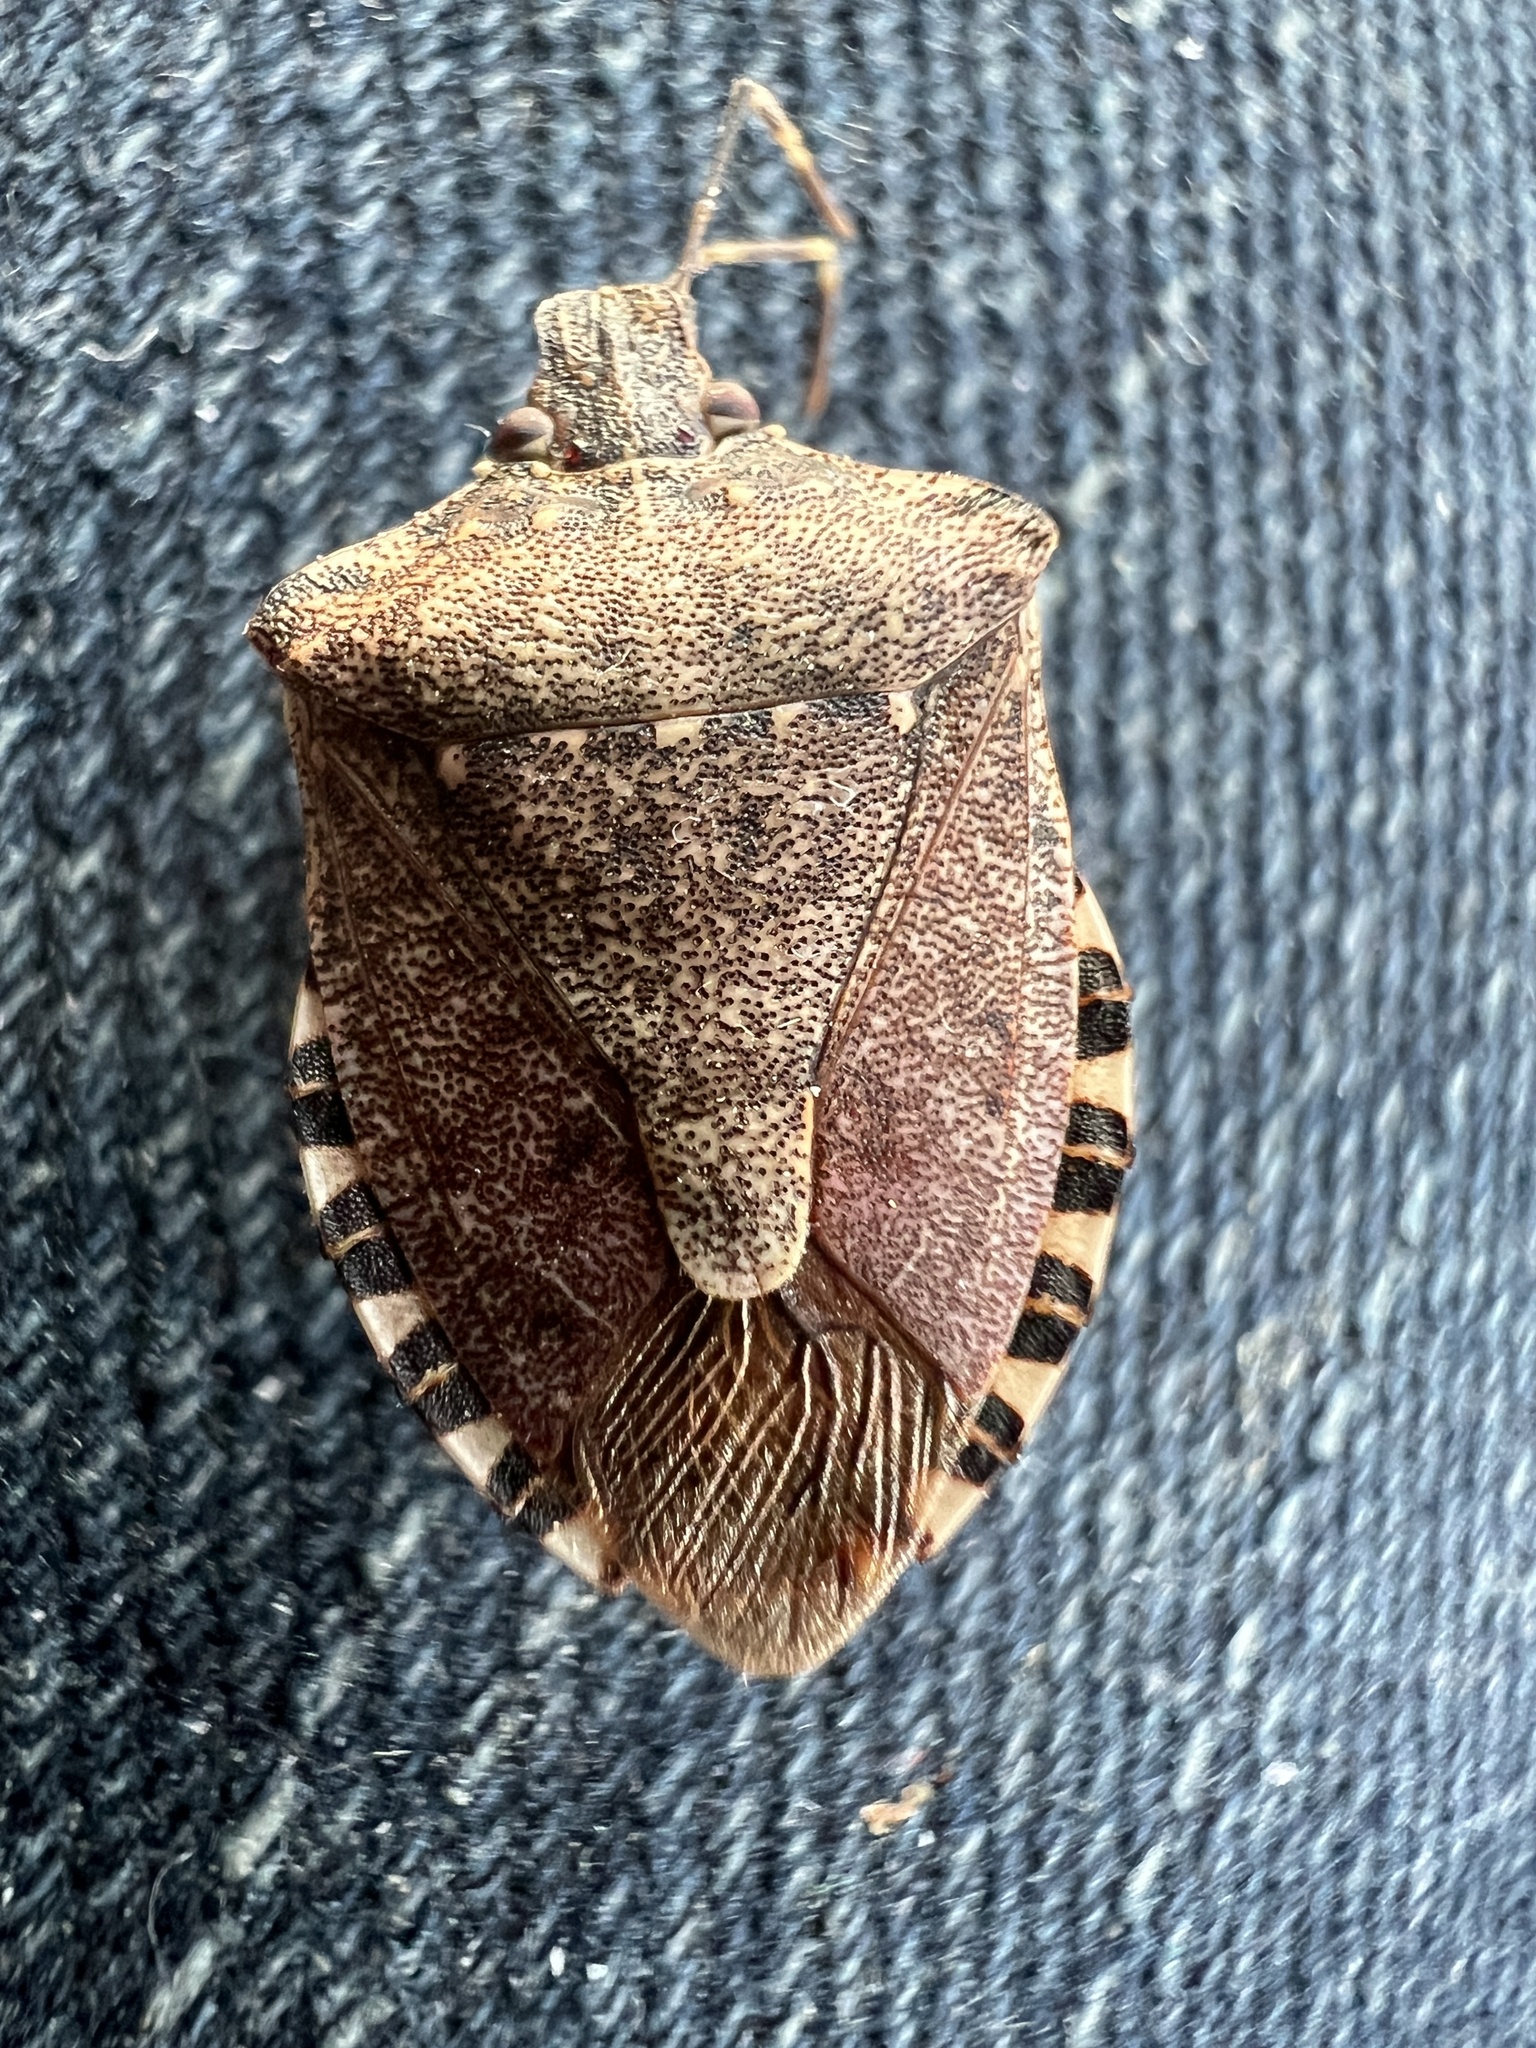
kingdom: Animalia
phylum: Arthropoda
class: Insecta
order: Hemiptera
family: Pentatomidae
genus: Halyomorpha
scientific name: Halyomorpha halys
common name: Brown marmorated stink bug
